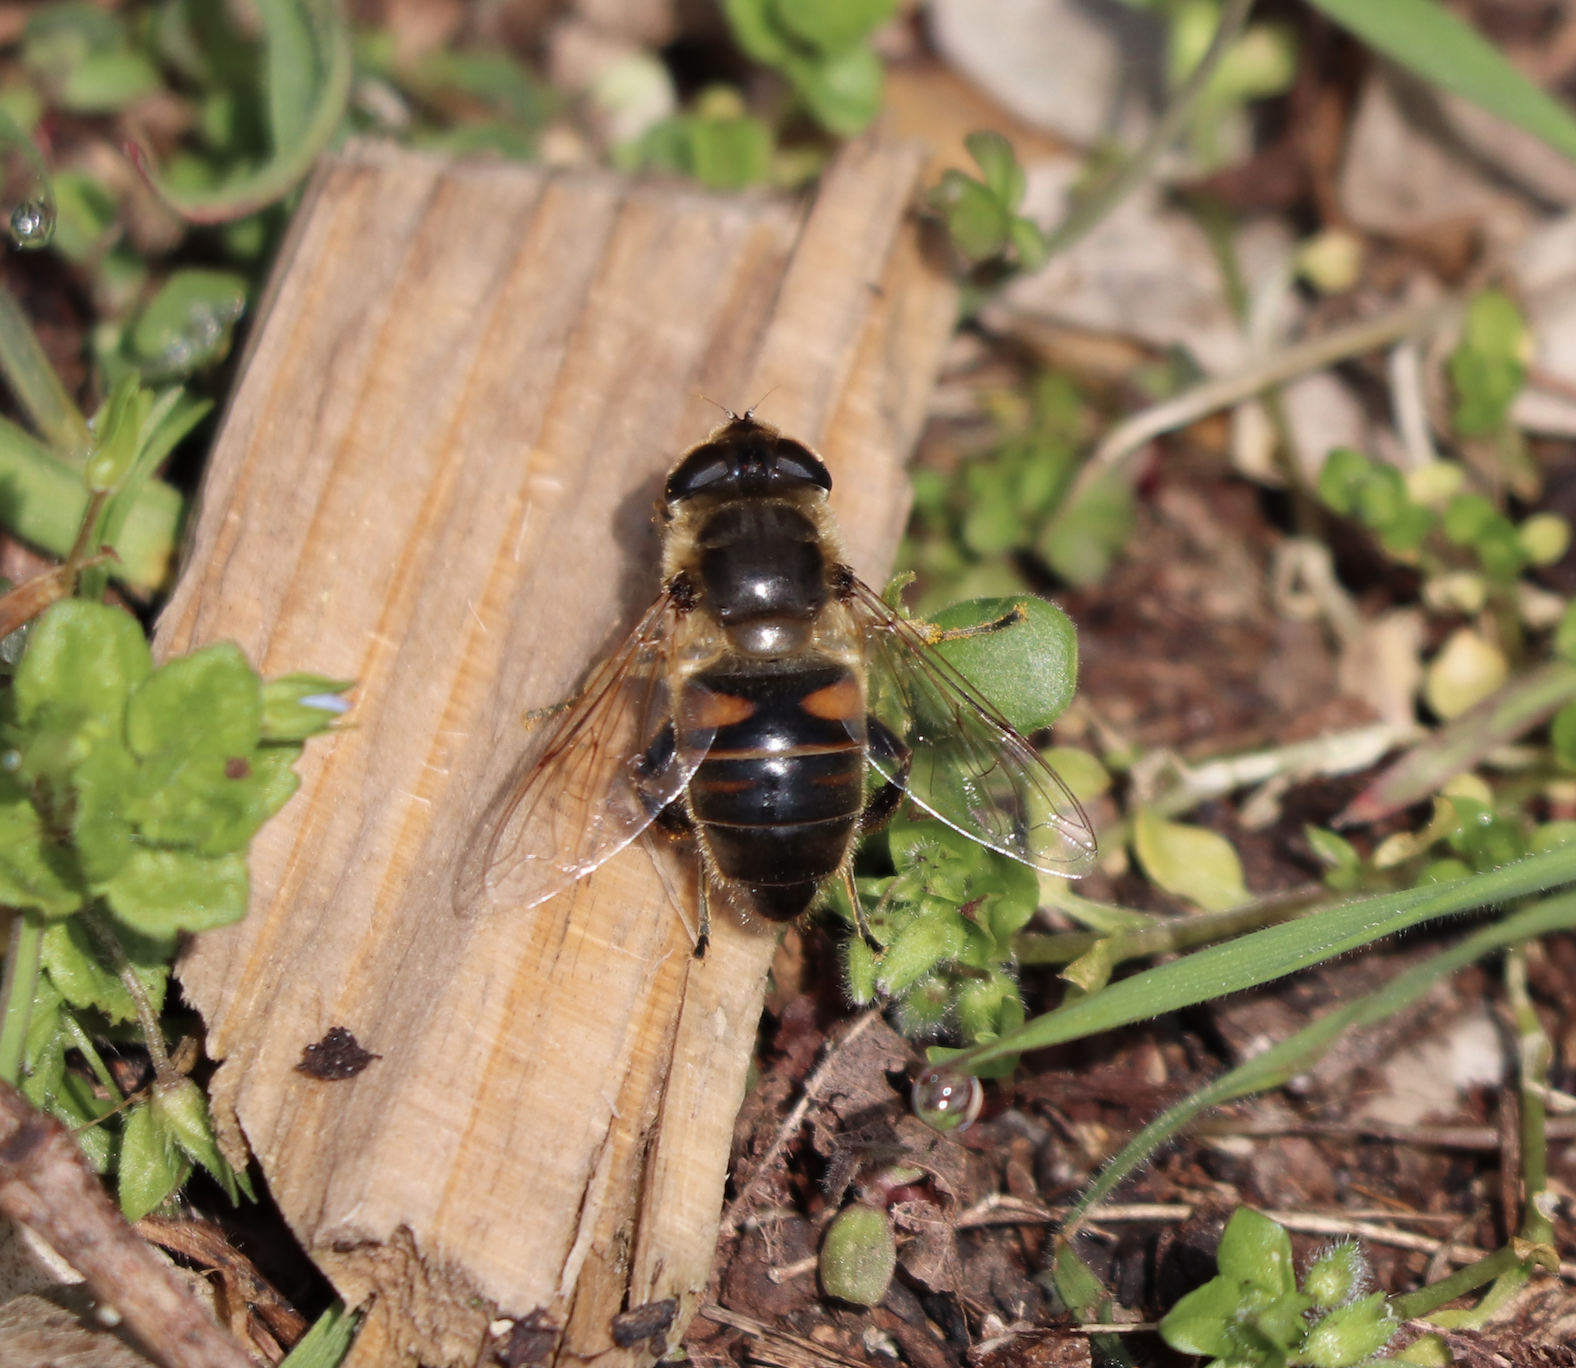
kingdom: Animalia
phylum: Arthropoda
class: Insecta
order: Diptera
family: Syrphidae
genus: Eristalis
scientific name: Eristalis tenax
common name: Drone fly
